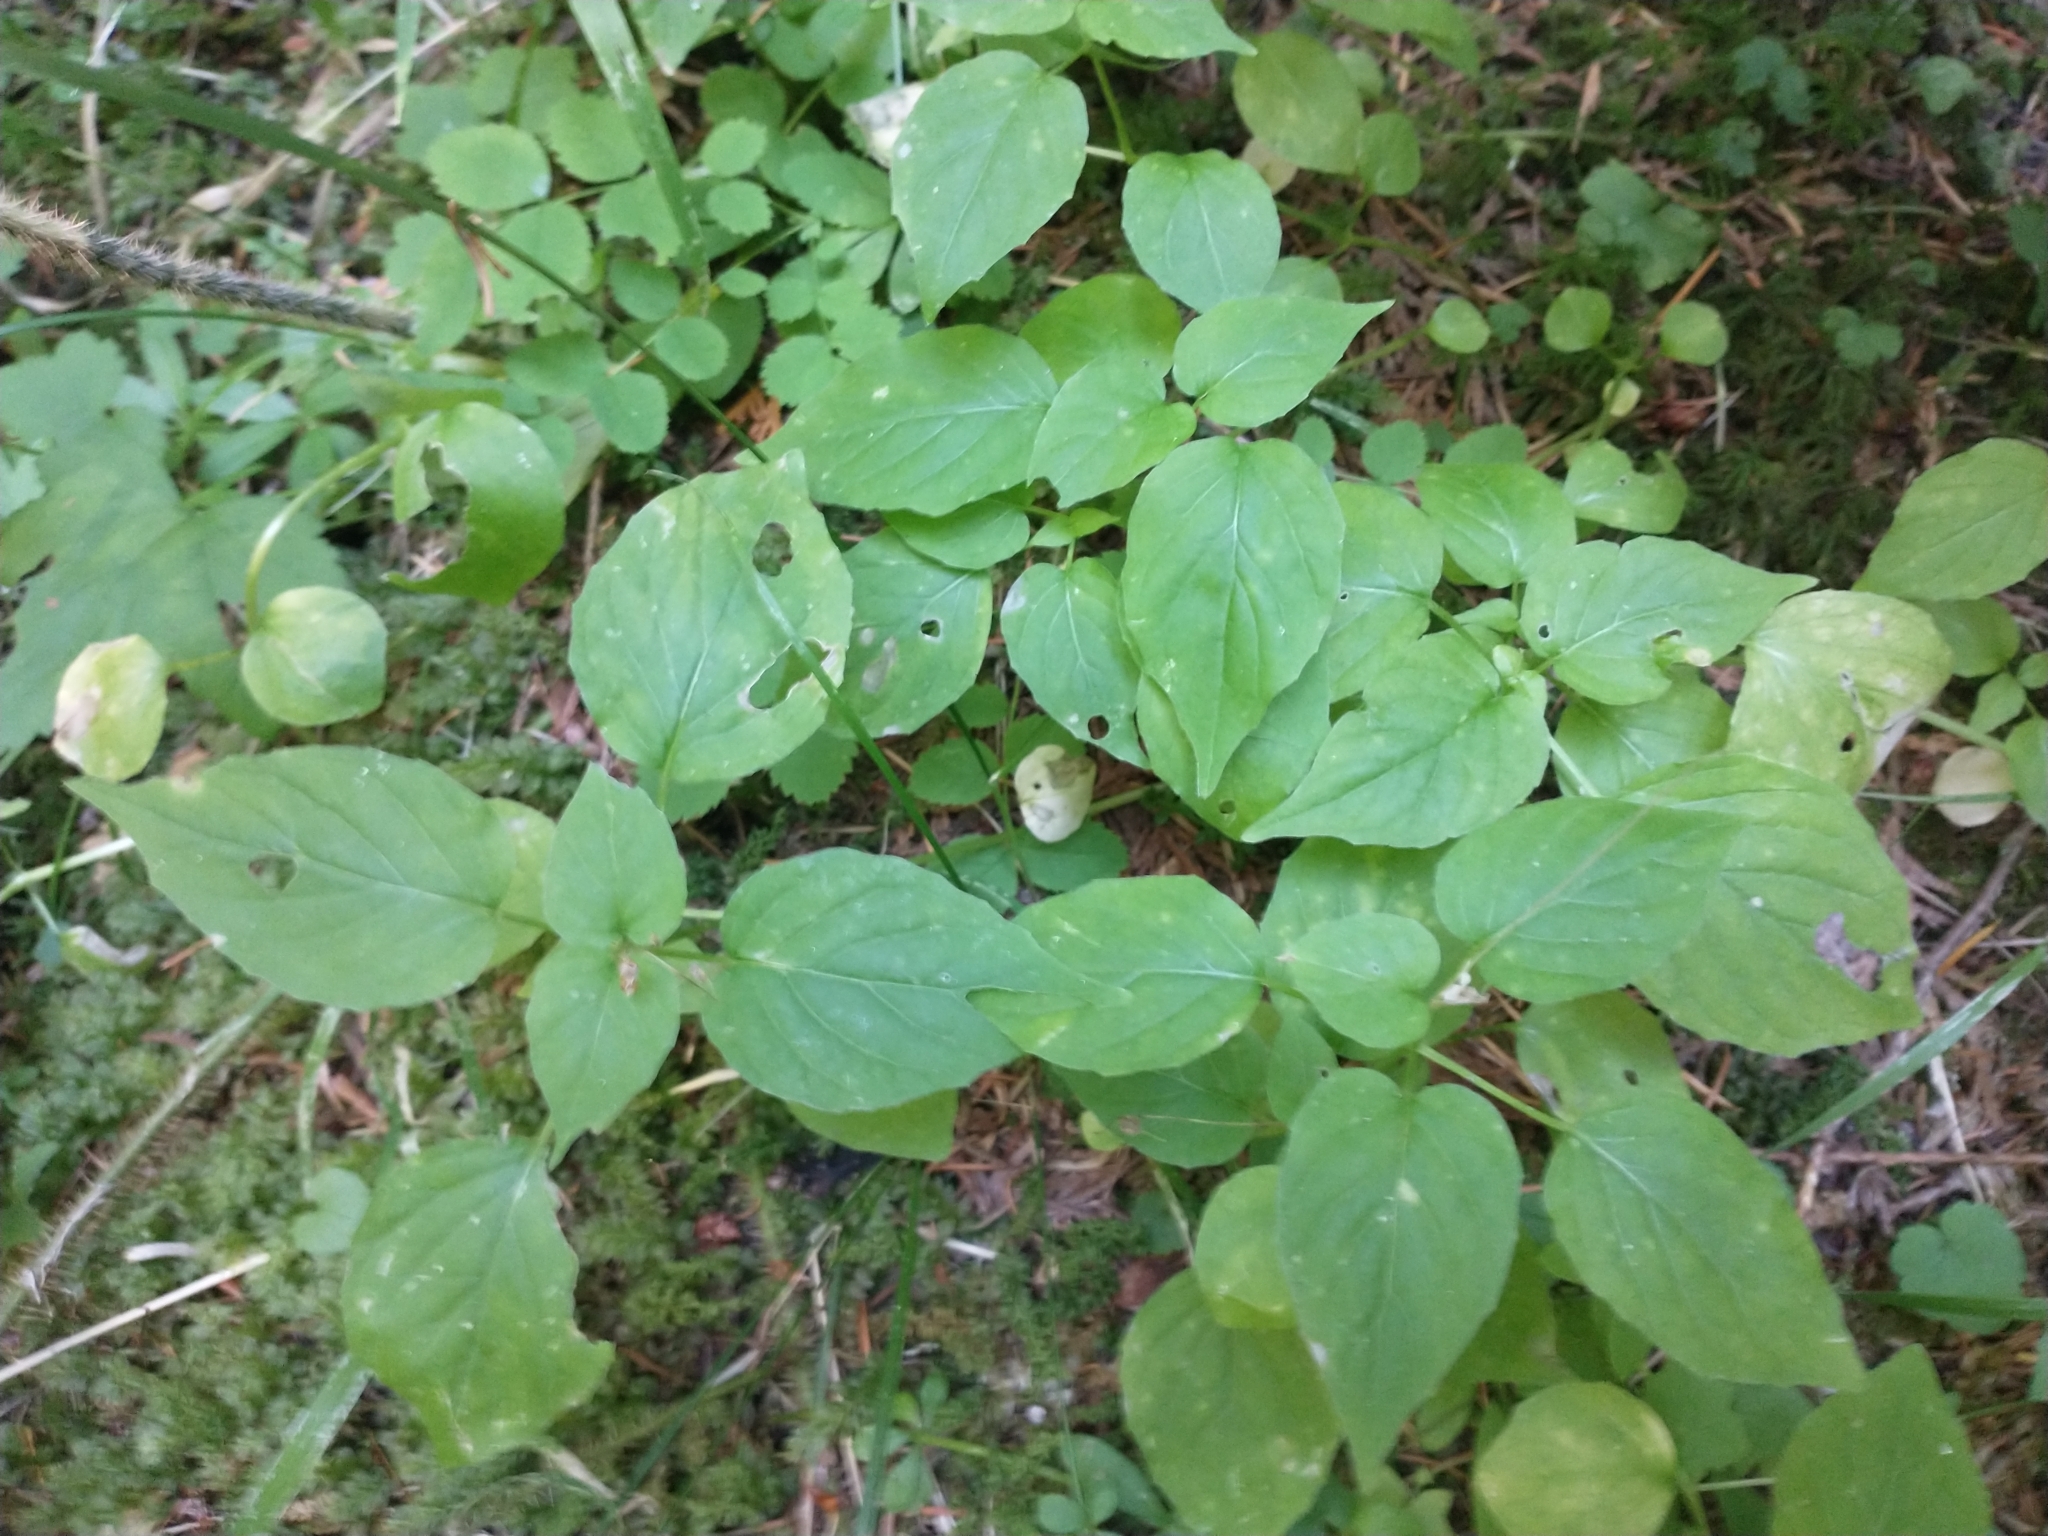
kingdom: Plantae
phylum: Tracheophyta
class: Magnoliopsida
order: Myrtales
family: Onagraceae
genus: Circaea
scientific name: Circaea alpina
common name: Alpine enchanter's-nightshade
